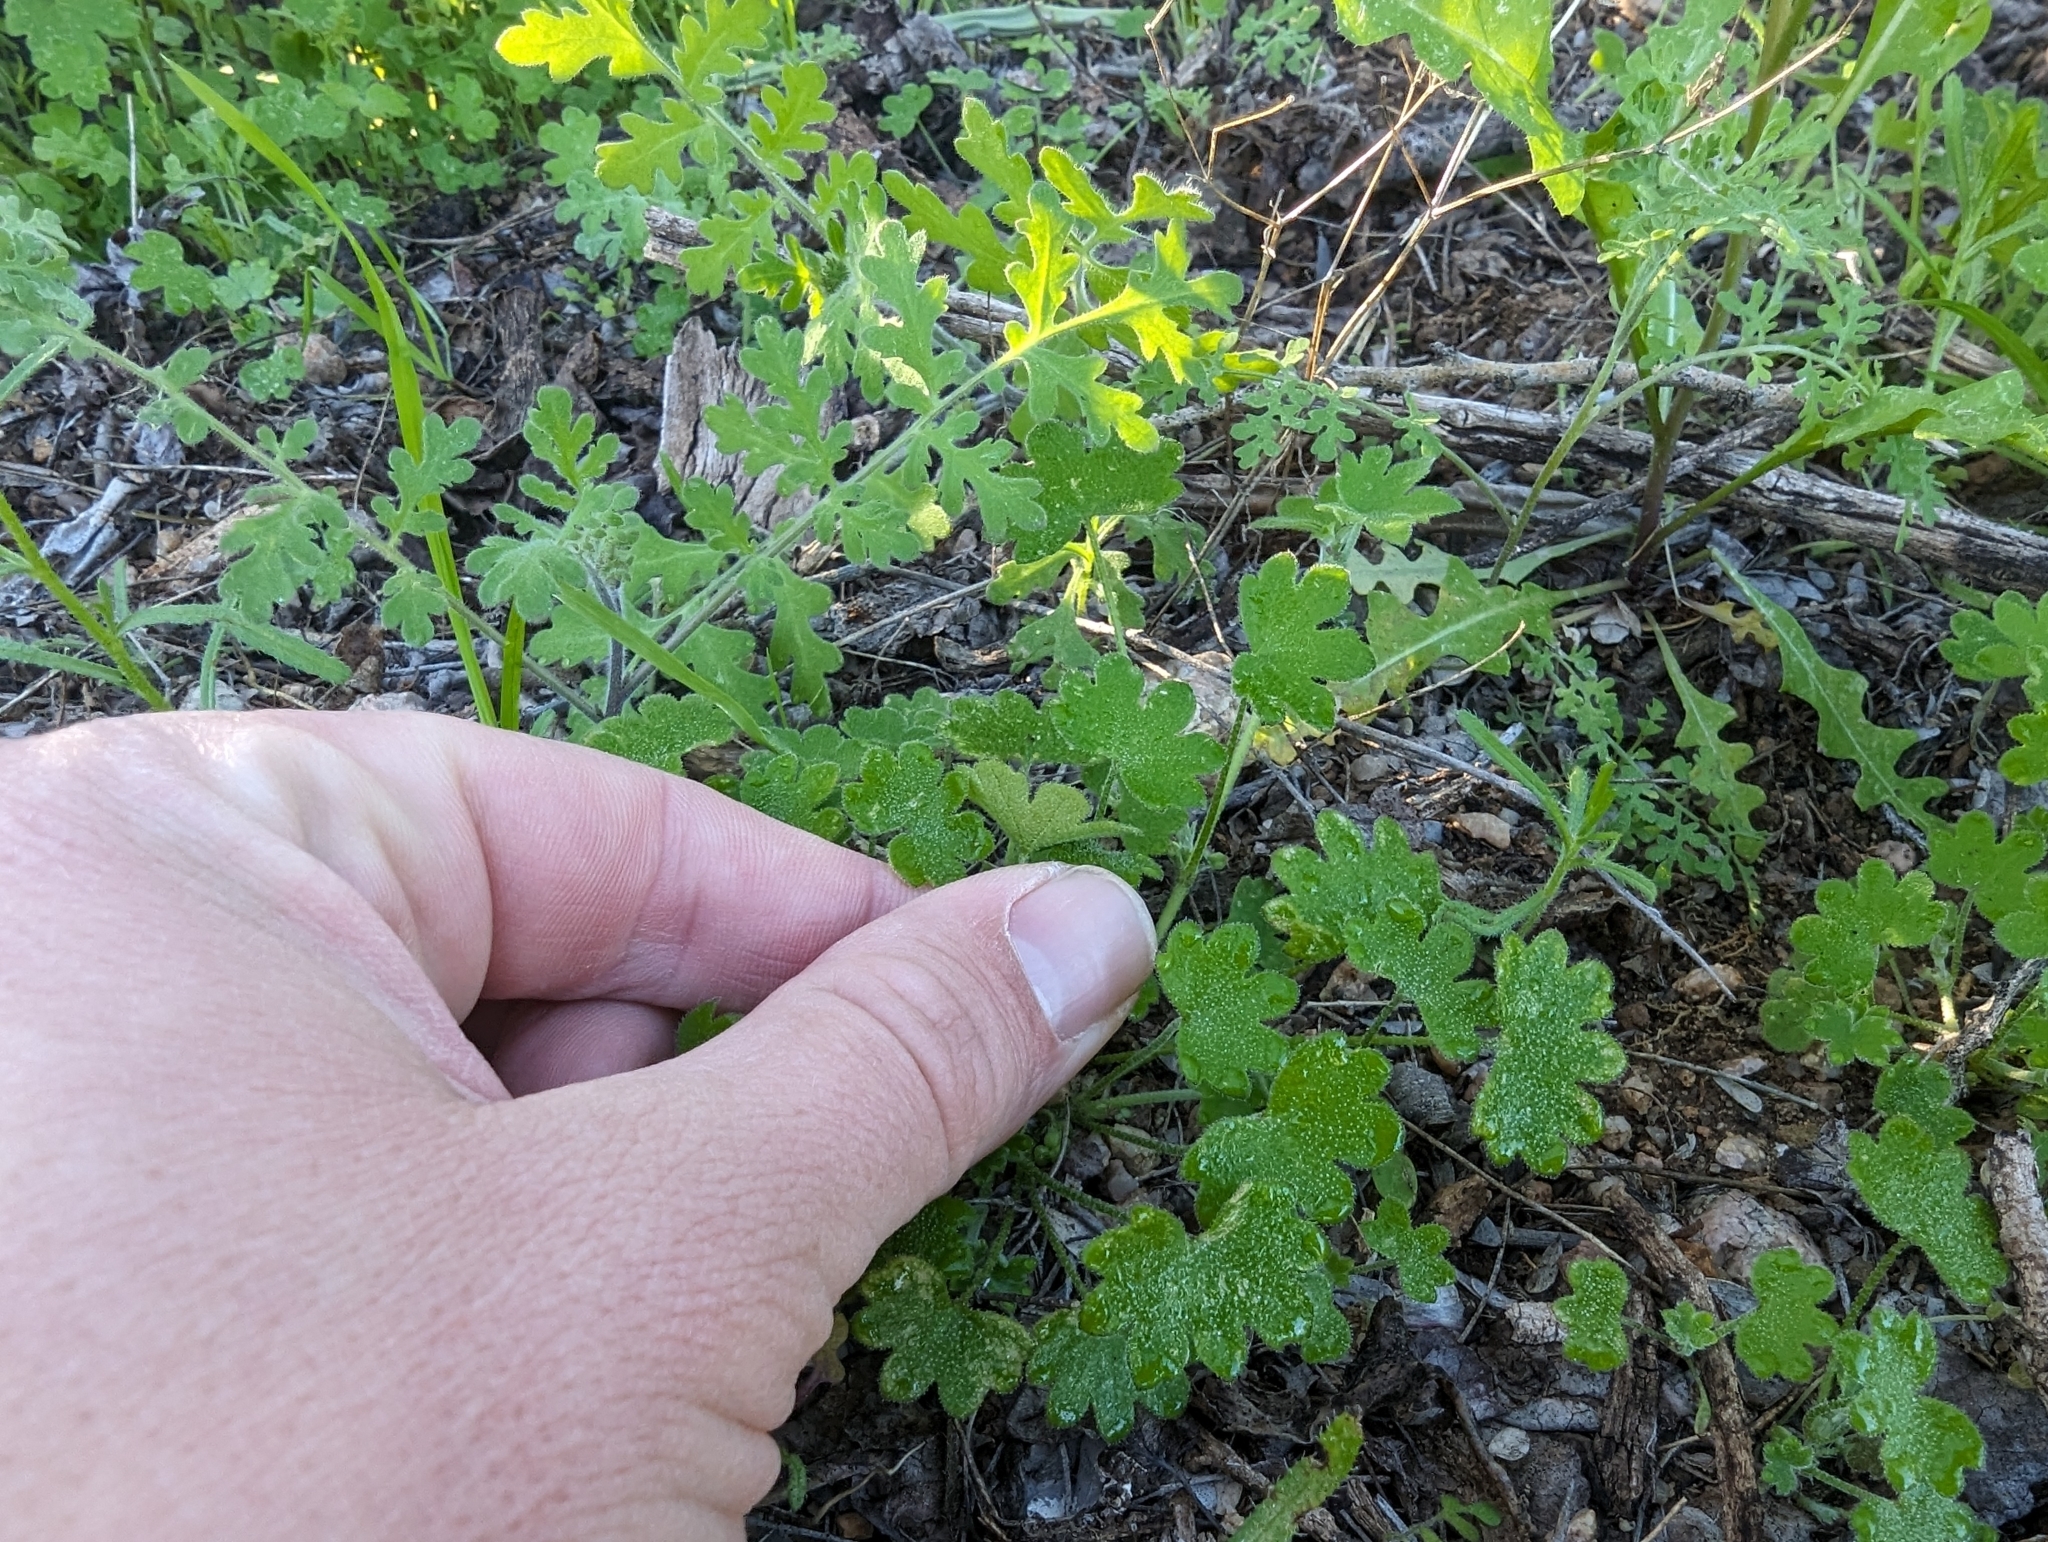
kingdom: Plantae
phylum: Tracheophyta
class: Magnoliopsida
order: Apiales
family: Apiaceae
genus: Bowlesia
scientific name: Bowlesia incana
